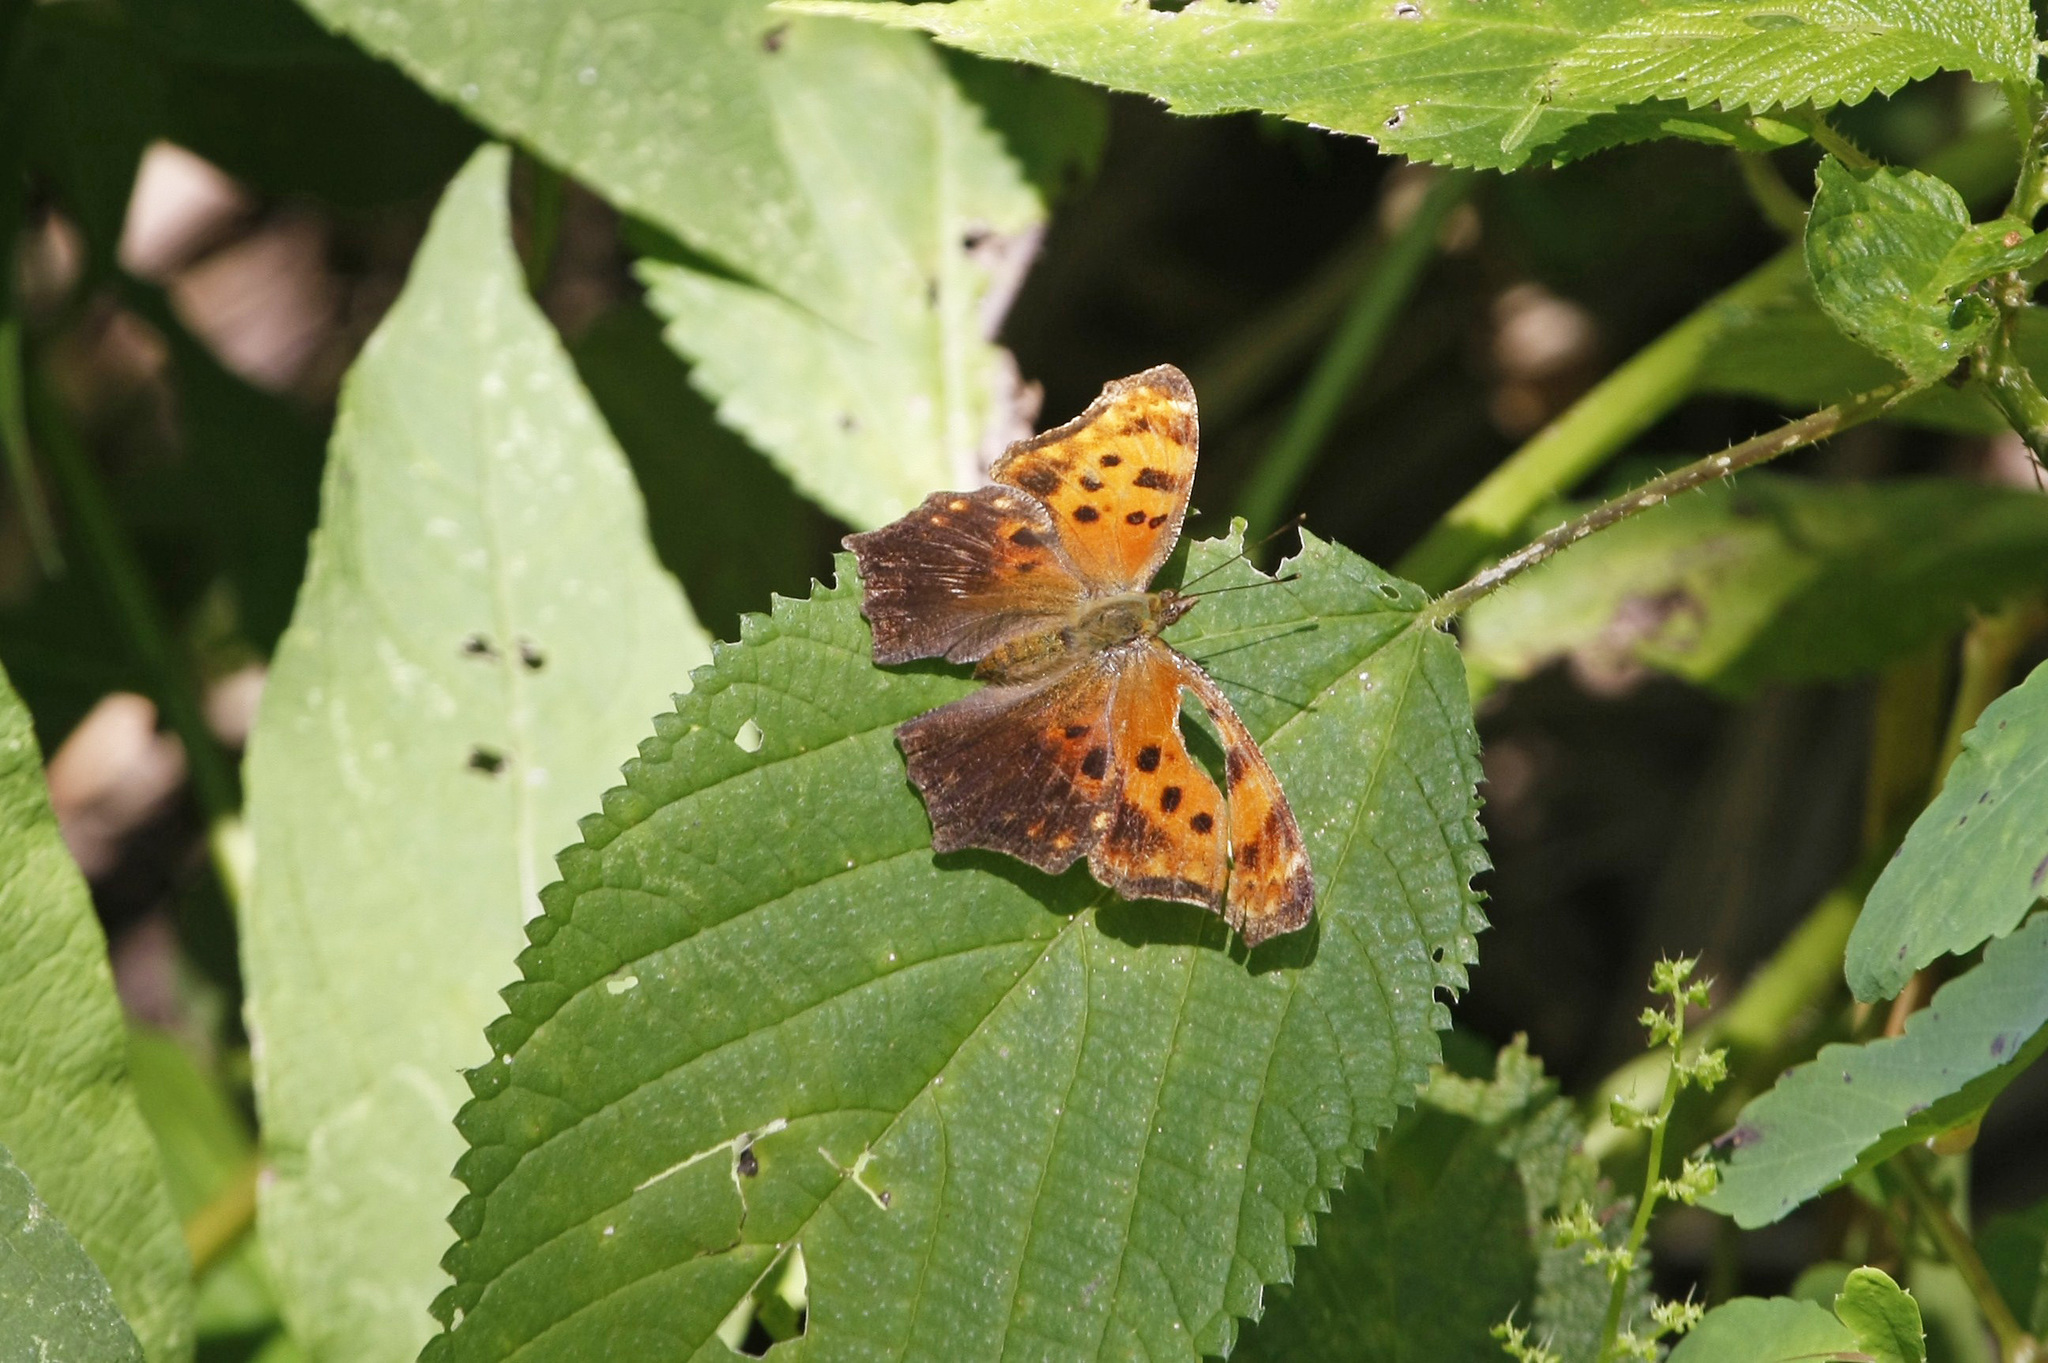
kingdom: Animalia
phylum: Arthropoda
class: Insecta
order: Lepidoptera
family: Nymphalidae
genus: Polygonia
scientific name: Polygonia comma
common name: Eastern comma
